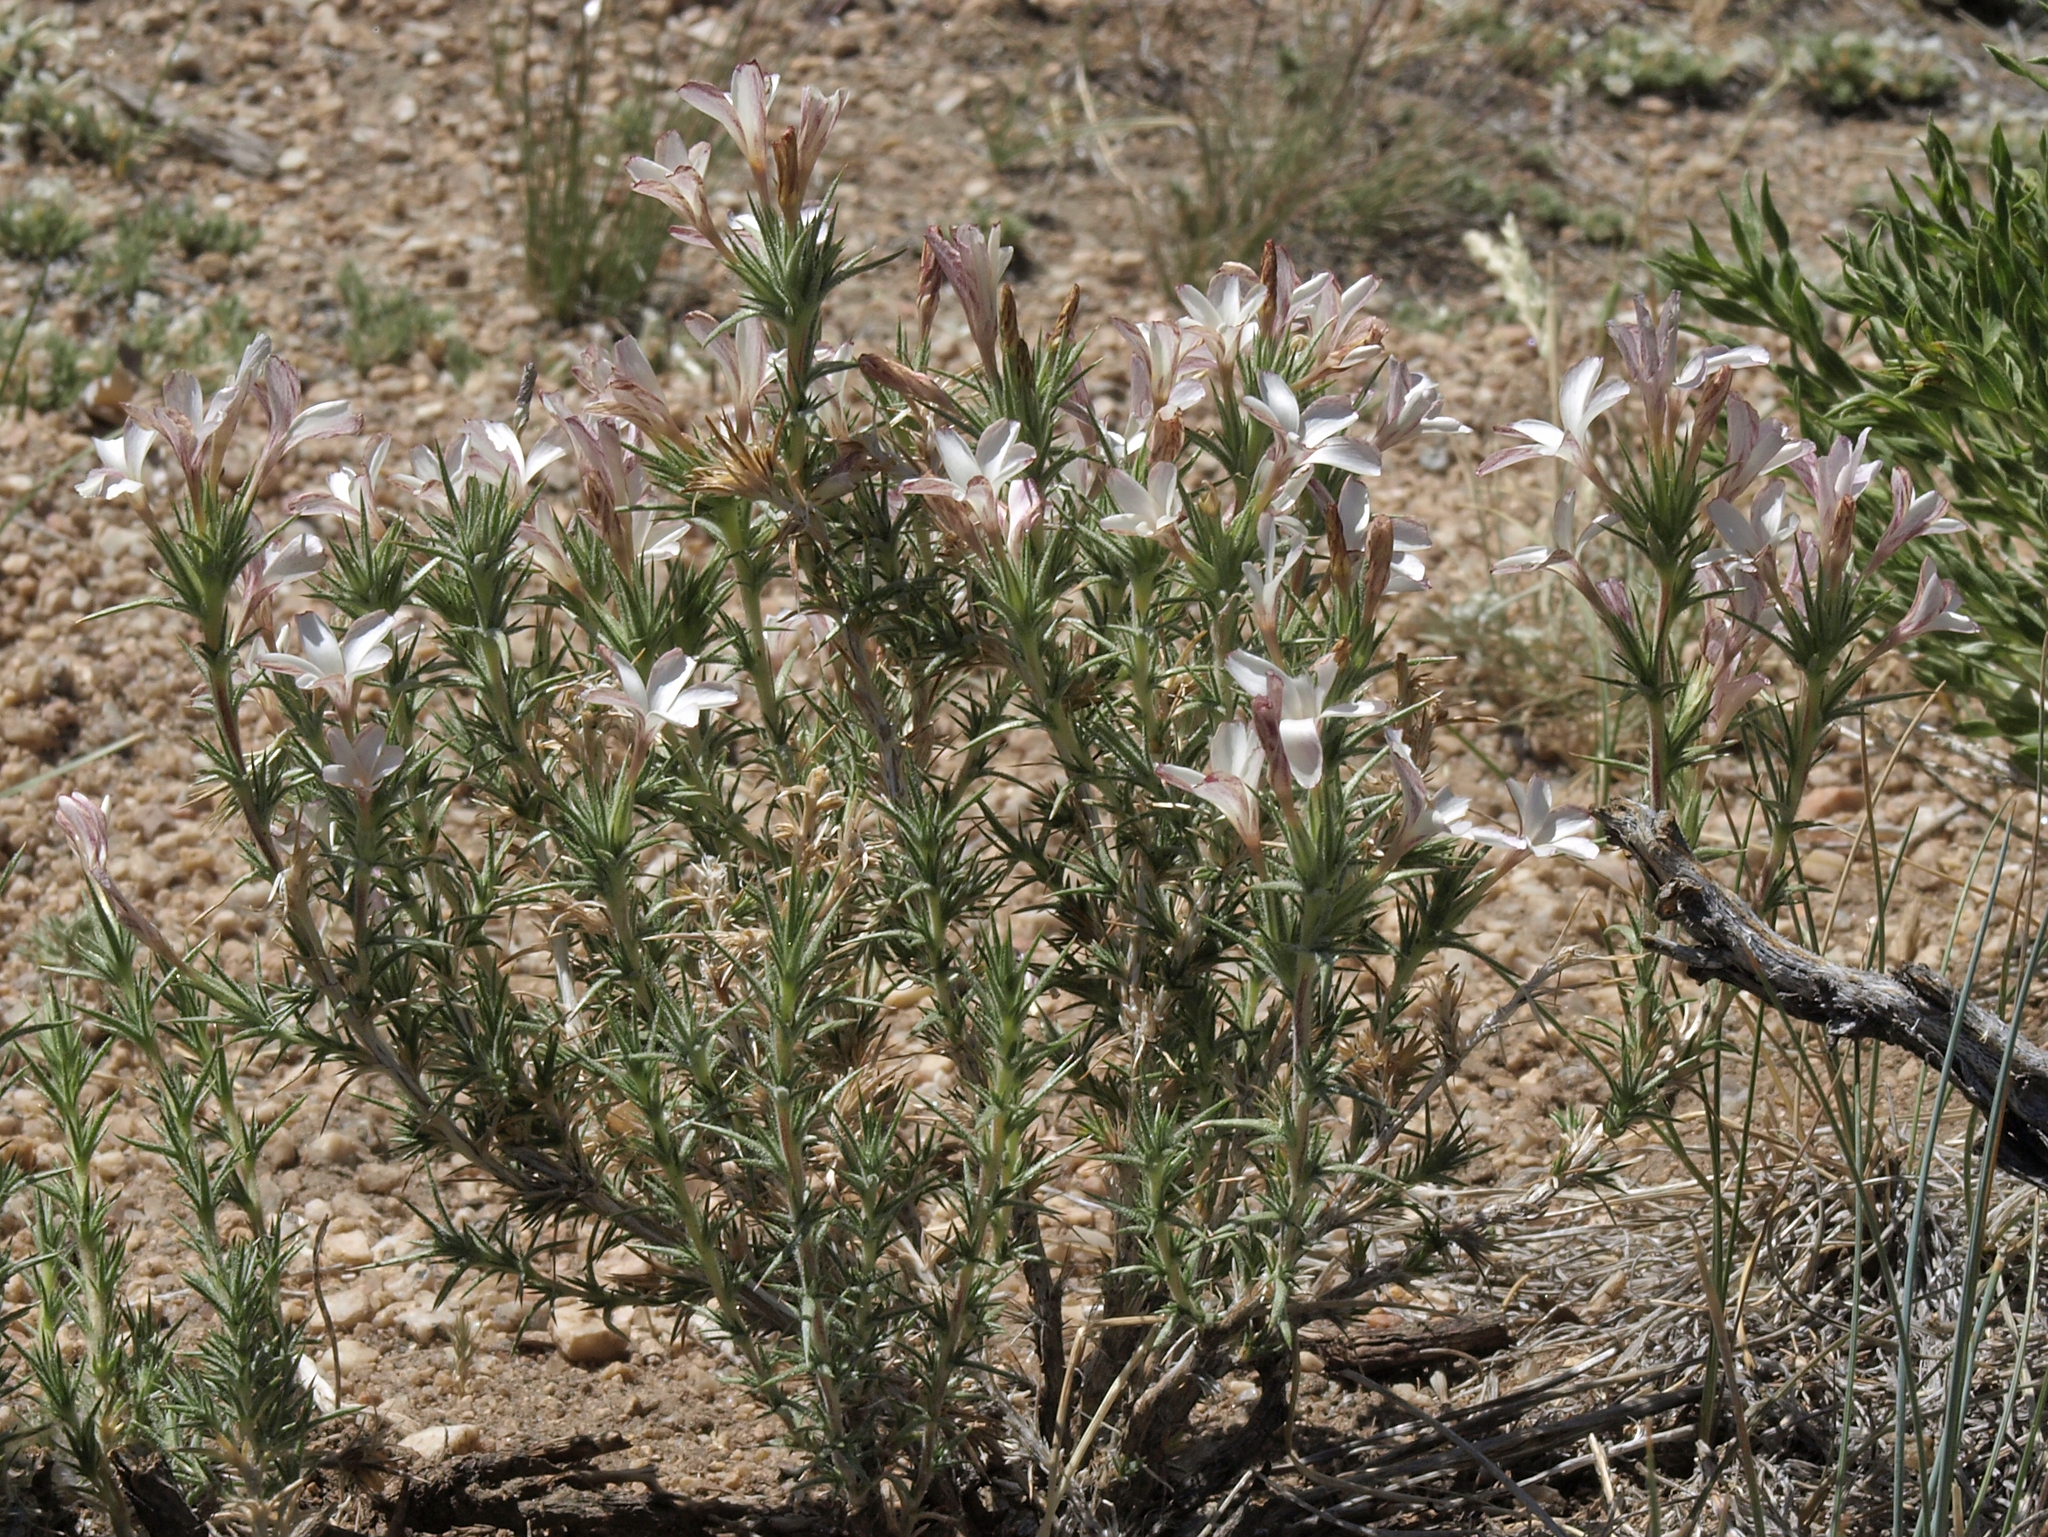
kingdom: Plantae
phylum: Tracheophyta
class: Magnoliopsida
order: Ericales
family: Polemoniaceae
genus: Linanthus
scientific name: Linanthus pungens
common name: Granite prickly phlox
